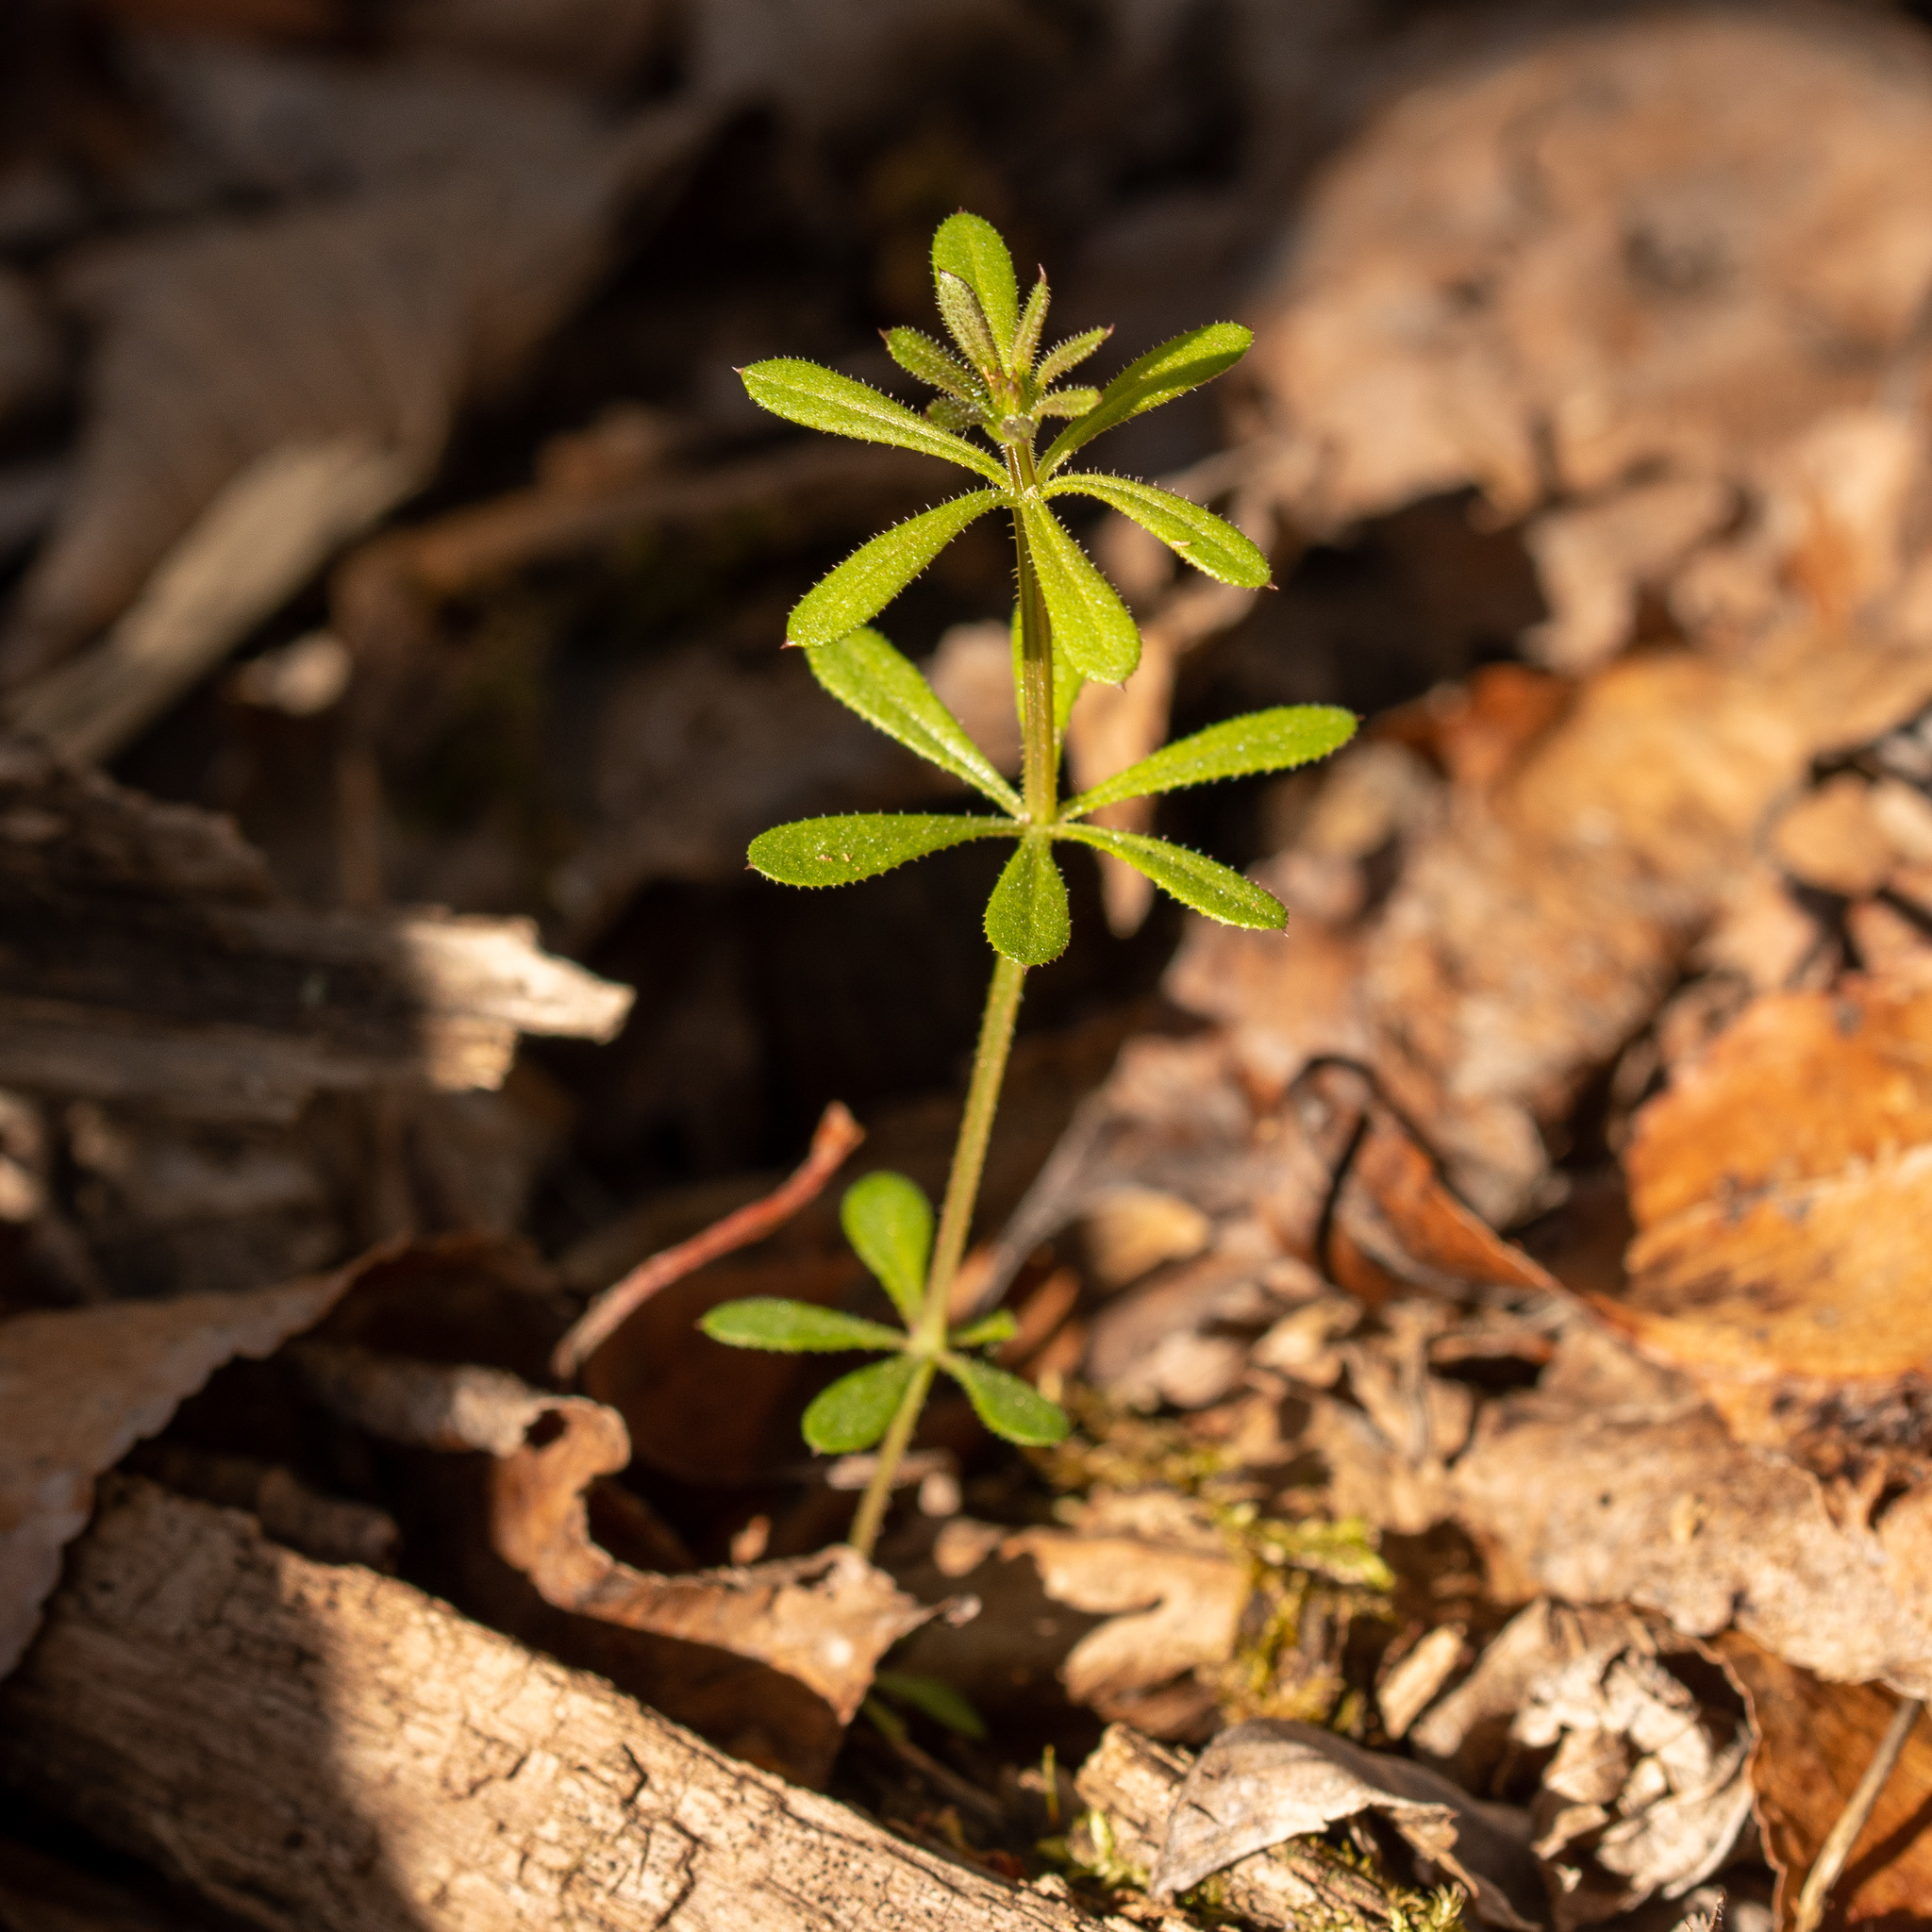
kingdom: Plantae
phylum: Tracheophyta
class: Magnoliopsida
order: Gentianales
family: Rubiaceae
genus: Galium
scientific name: Galium aparine
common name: Cleavers
